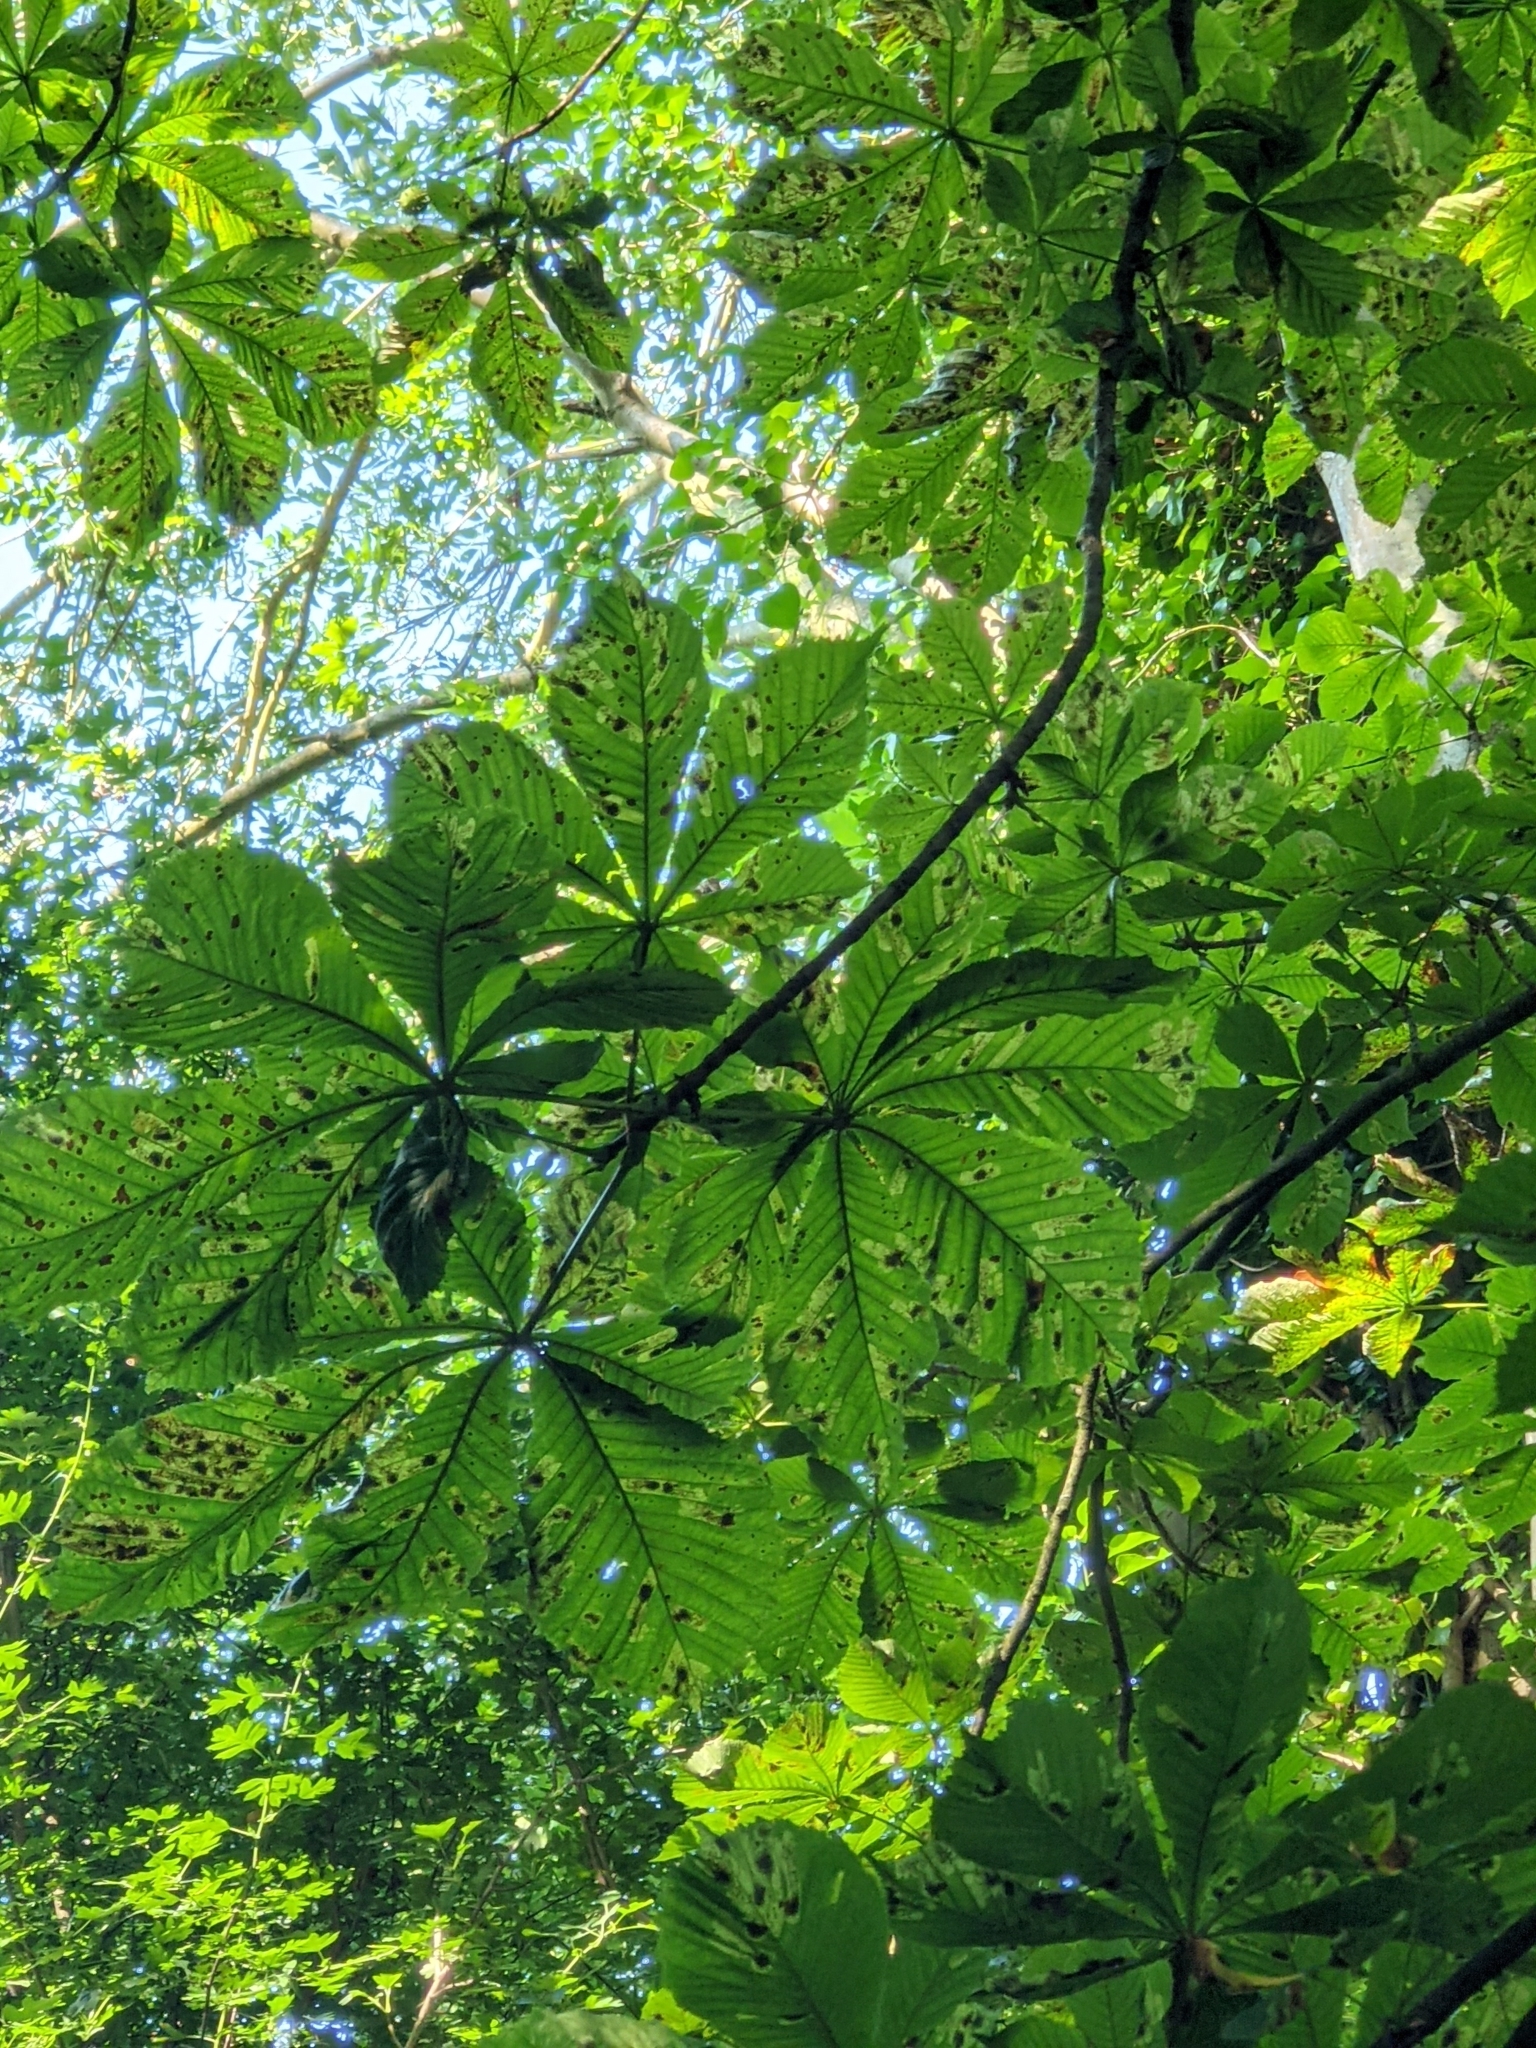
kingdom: Animalia
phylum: Arthropoda
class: Insecta
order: Lepidoptera
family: Gracillariidae
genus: Cameraria
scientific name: Cameraria ohridella
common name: Horse-chestnut leaf-miner
